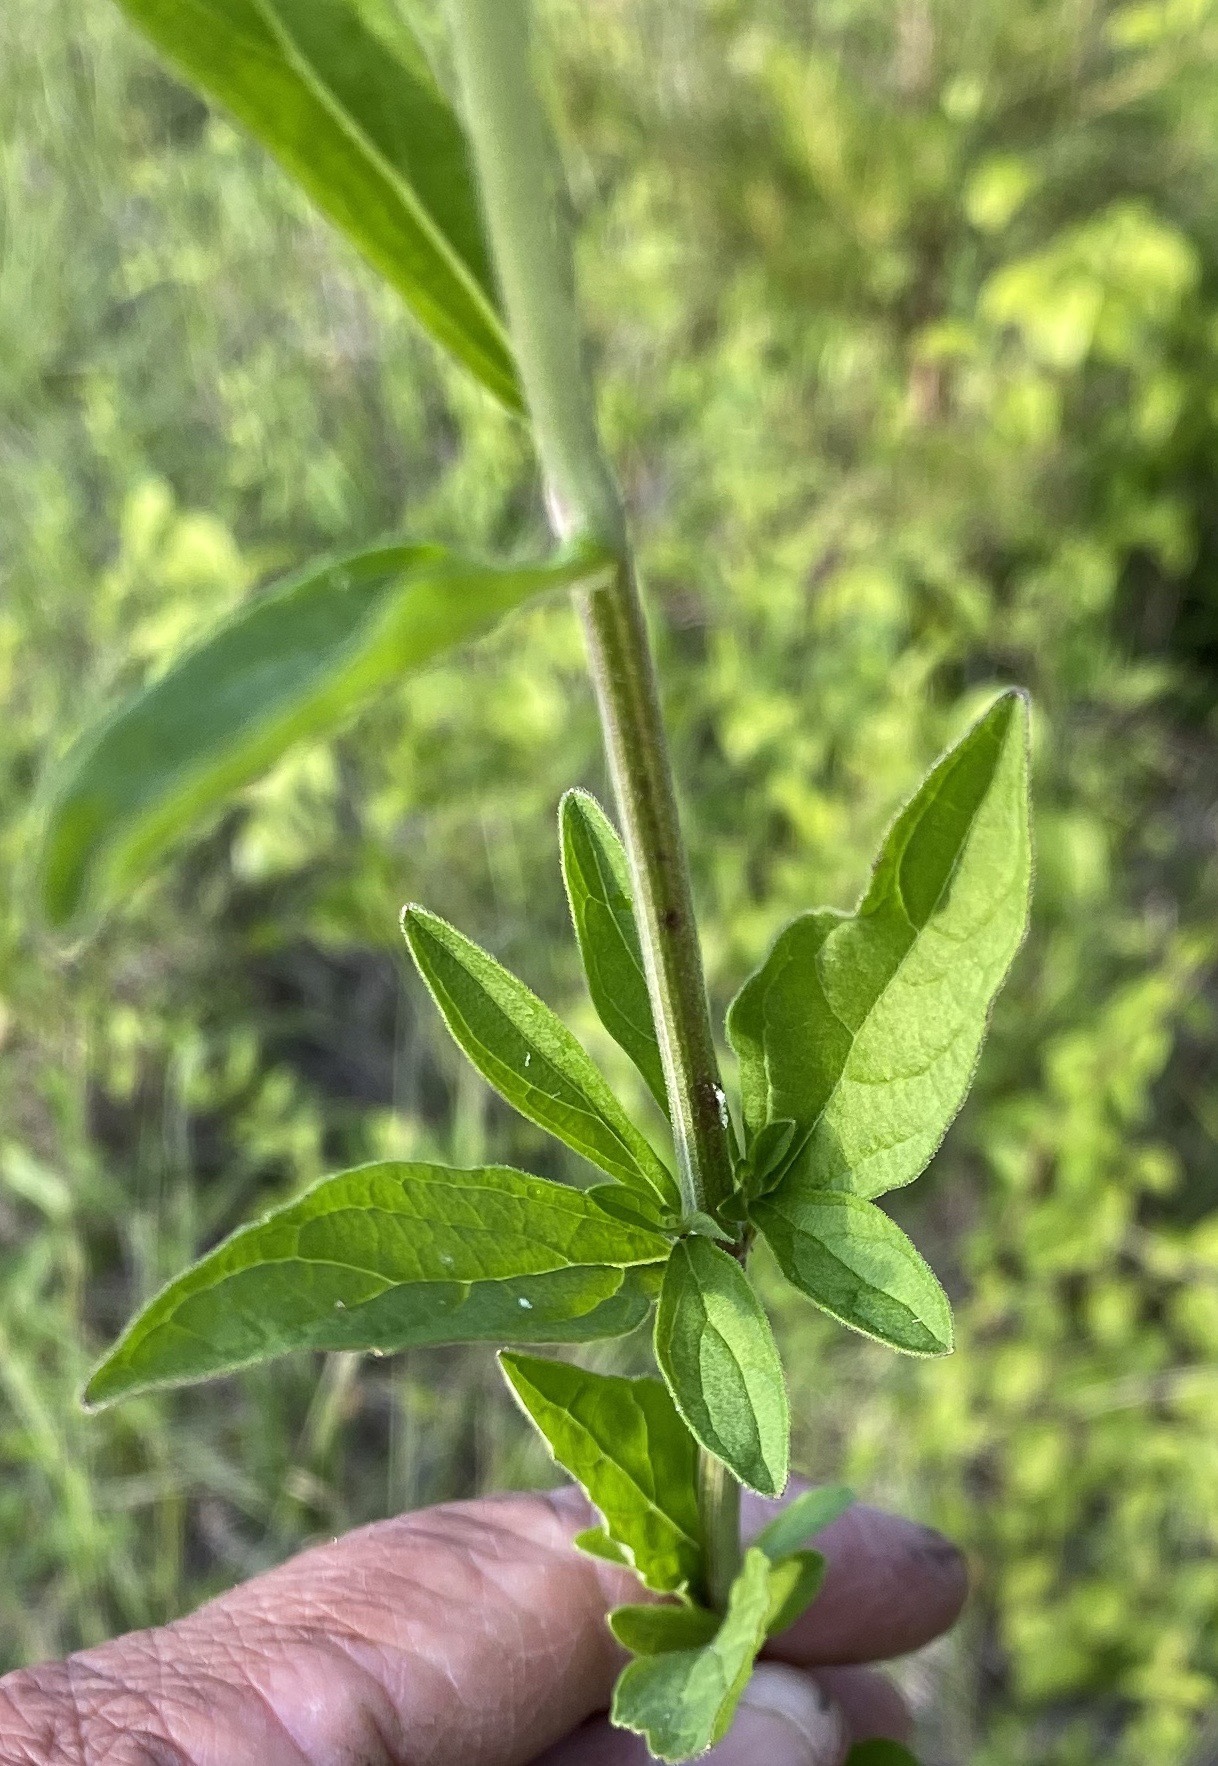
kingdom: Plantae
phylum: Tracheophyta
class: Magnoliopsida
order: Lamiales
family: Lamiaceae
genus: Scutellaria
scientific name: Scutellaria integrifolia
